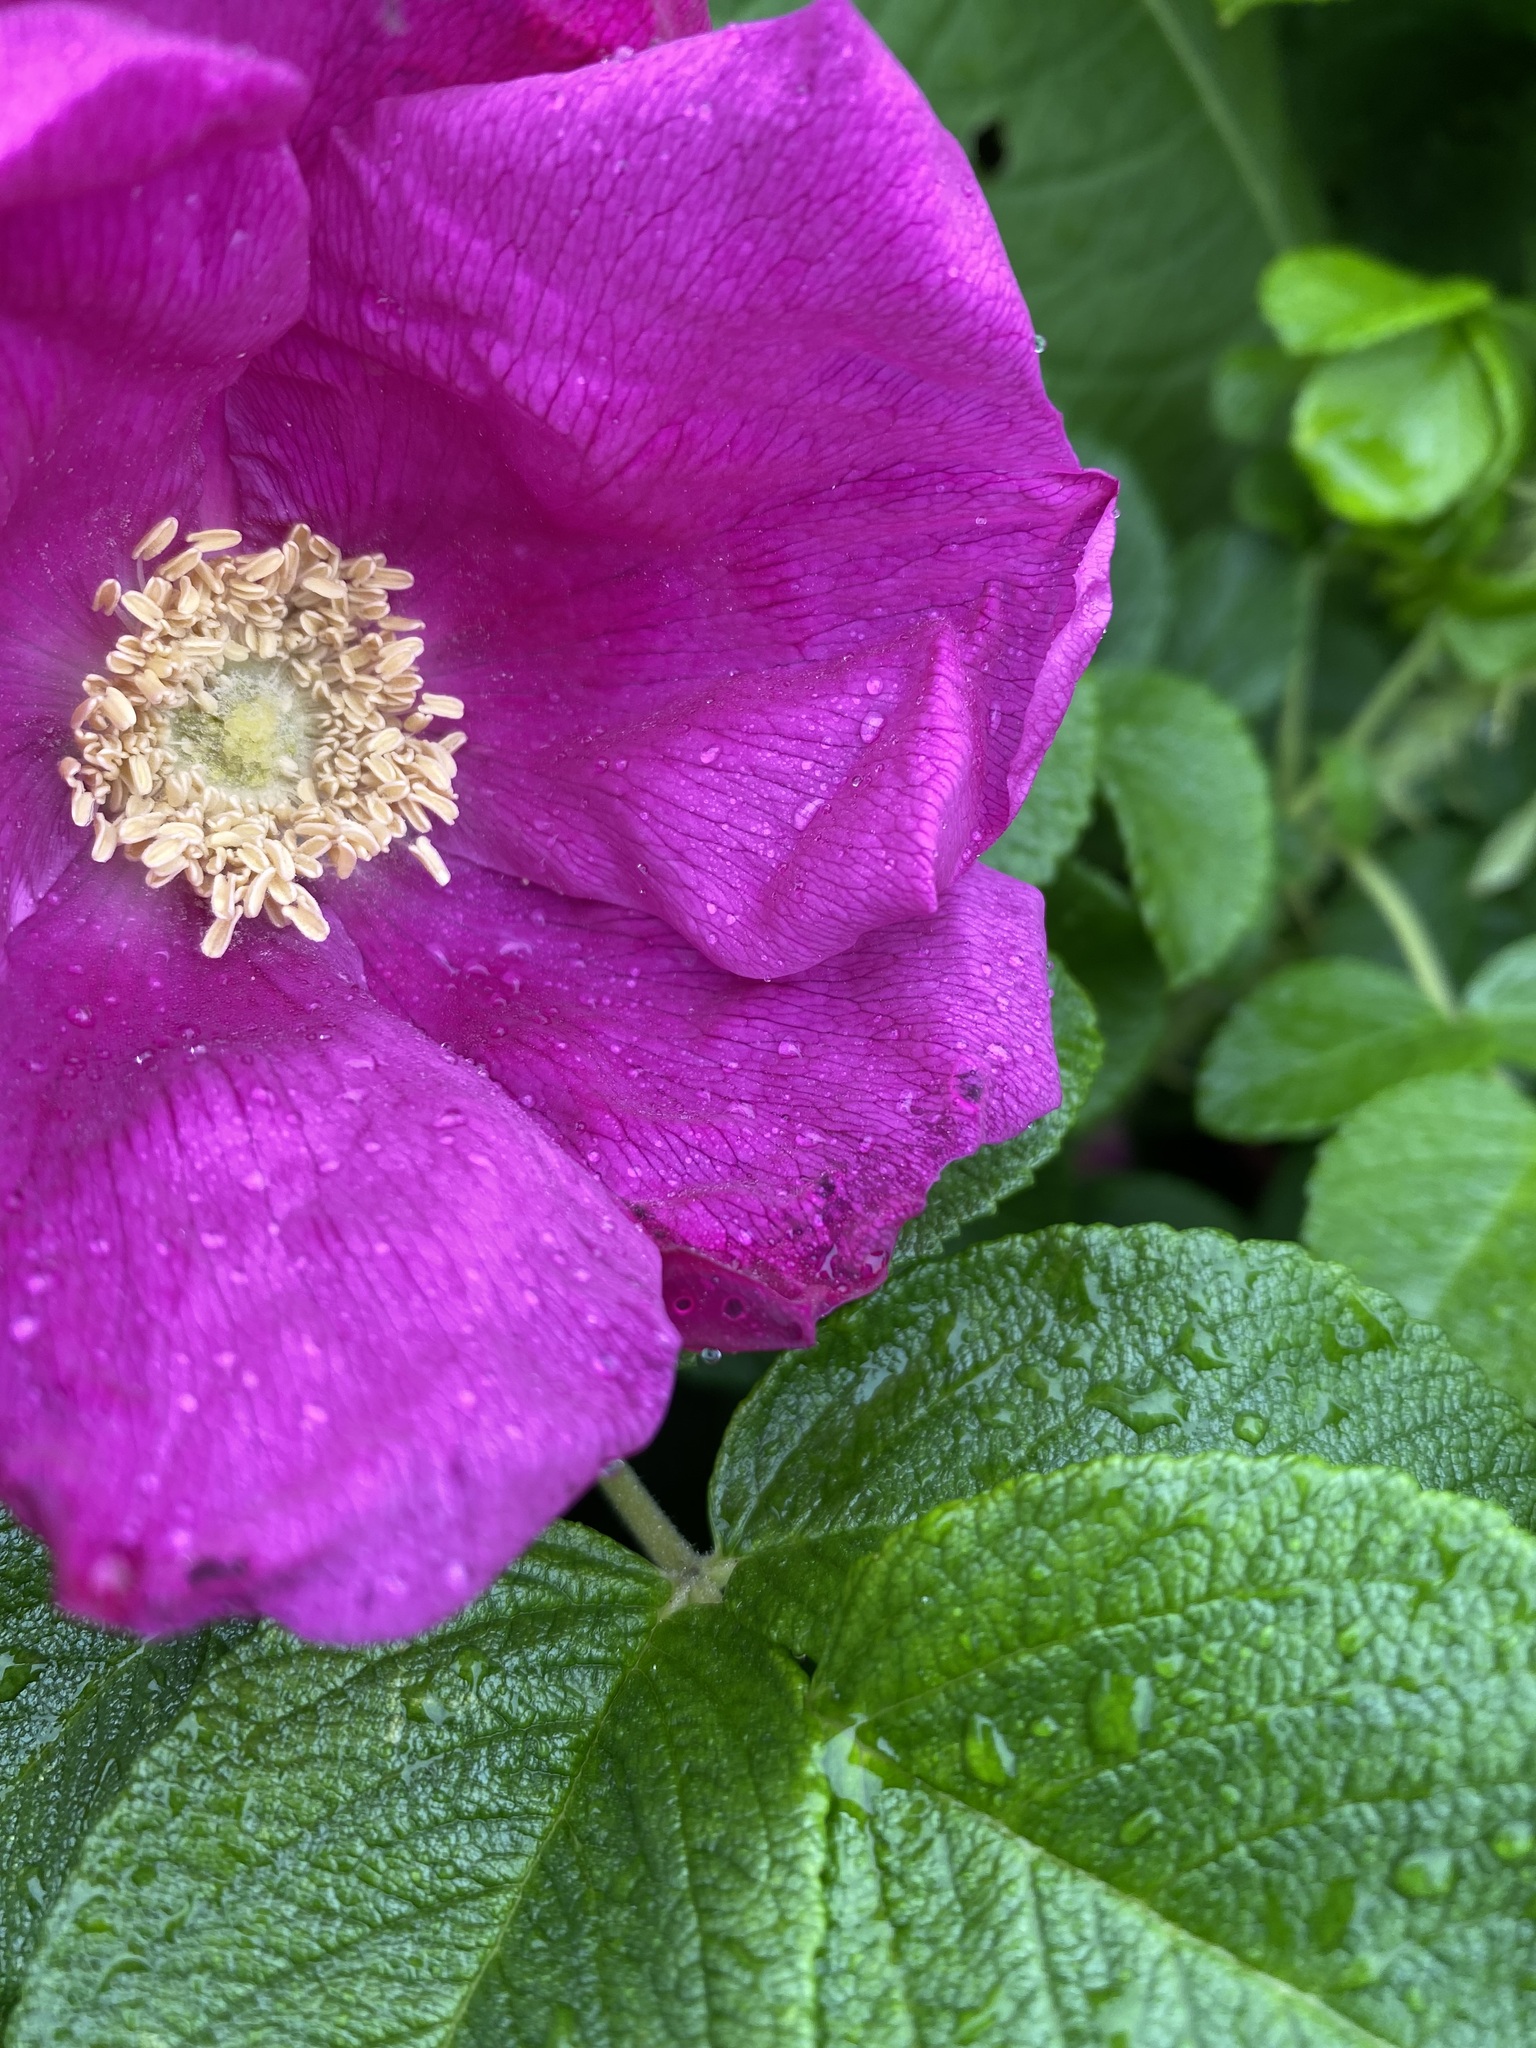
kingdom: Plantae
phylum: Tracheophyta
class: Magnoliopsida
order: Rosales
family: Rosaceae
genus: Rosa
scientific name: Rosa rugosa
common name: Japanese rose
